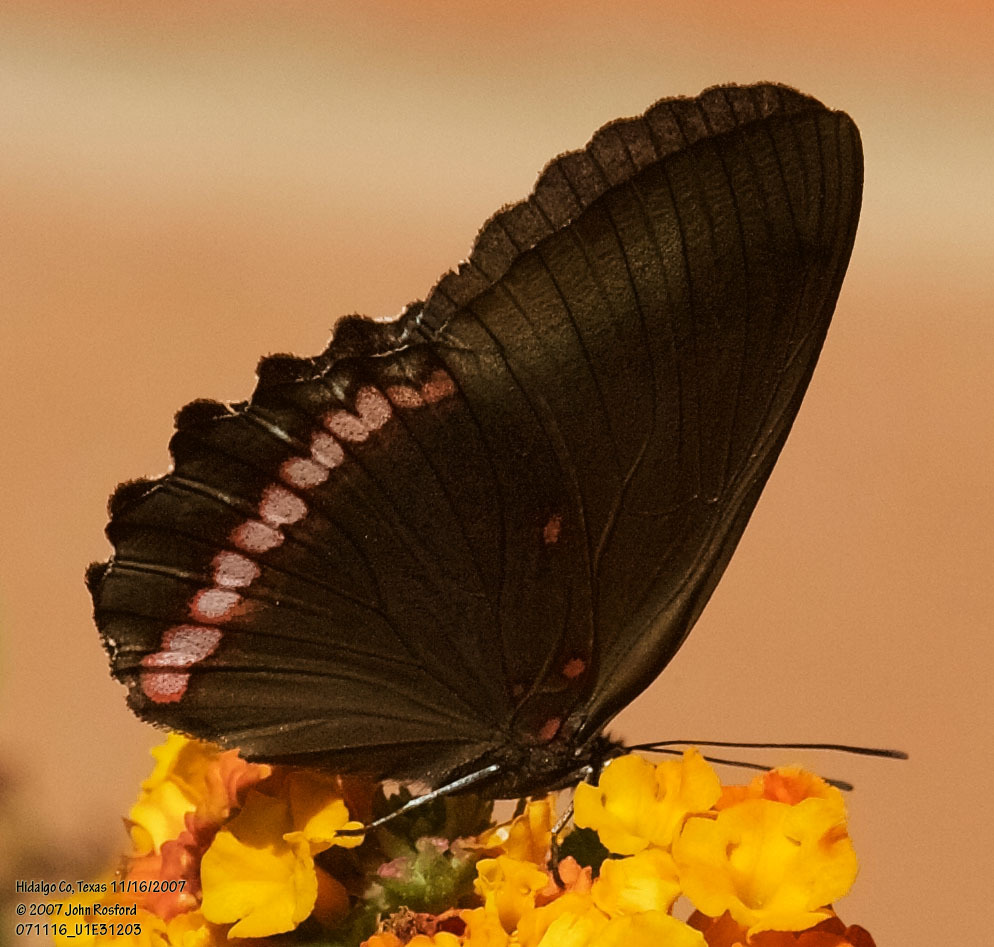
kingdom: Animalia
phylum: Arthropoda
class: Insecta
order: Lepidoptera
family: Nymphalidae
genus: Biblis
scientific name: Biblis aganisa
